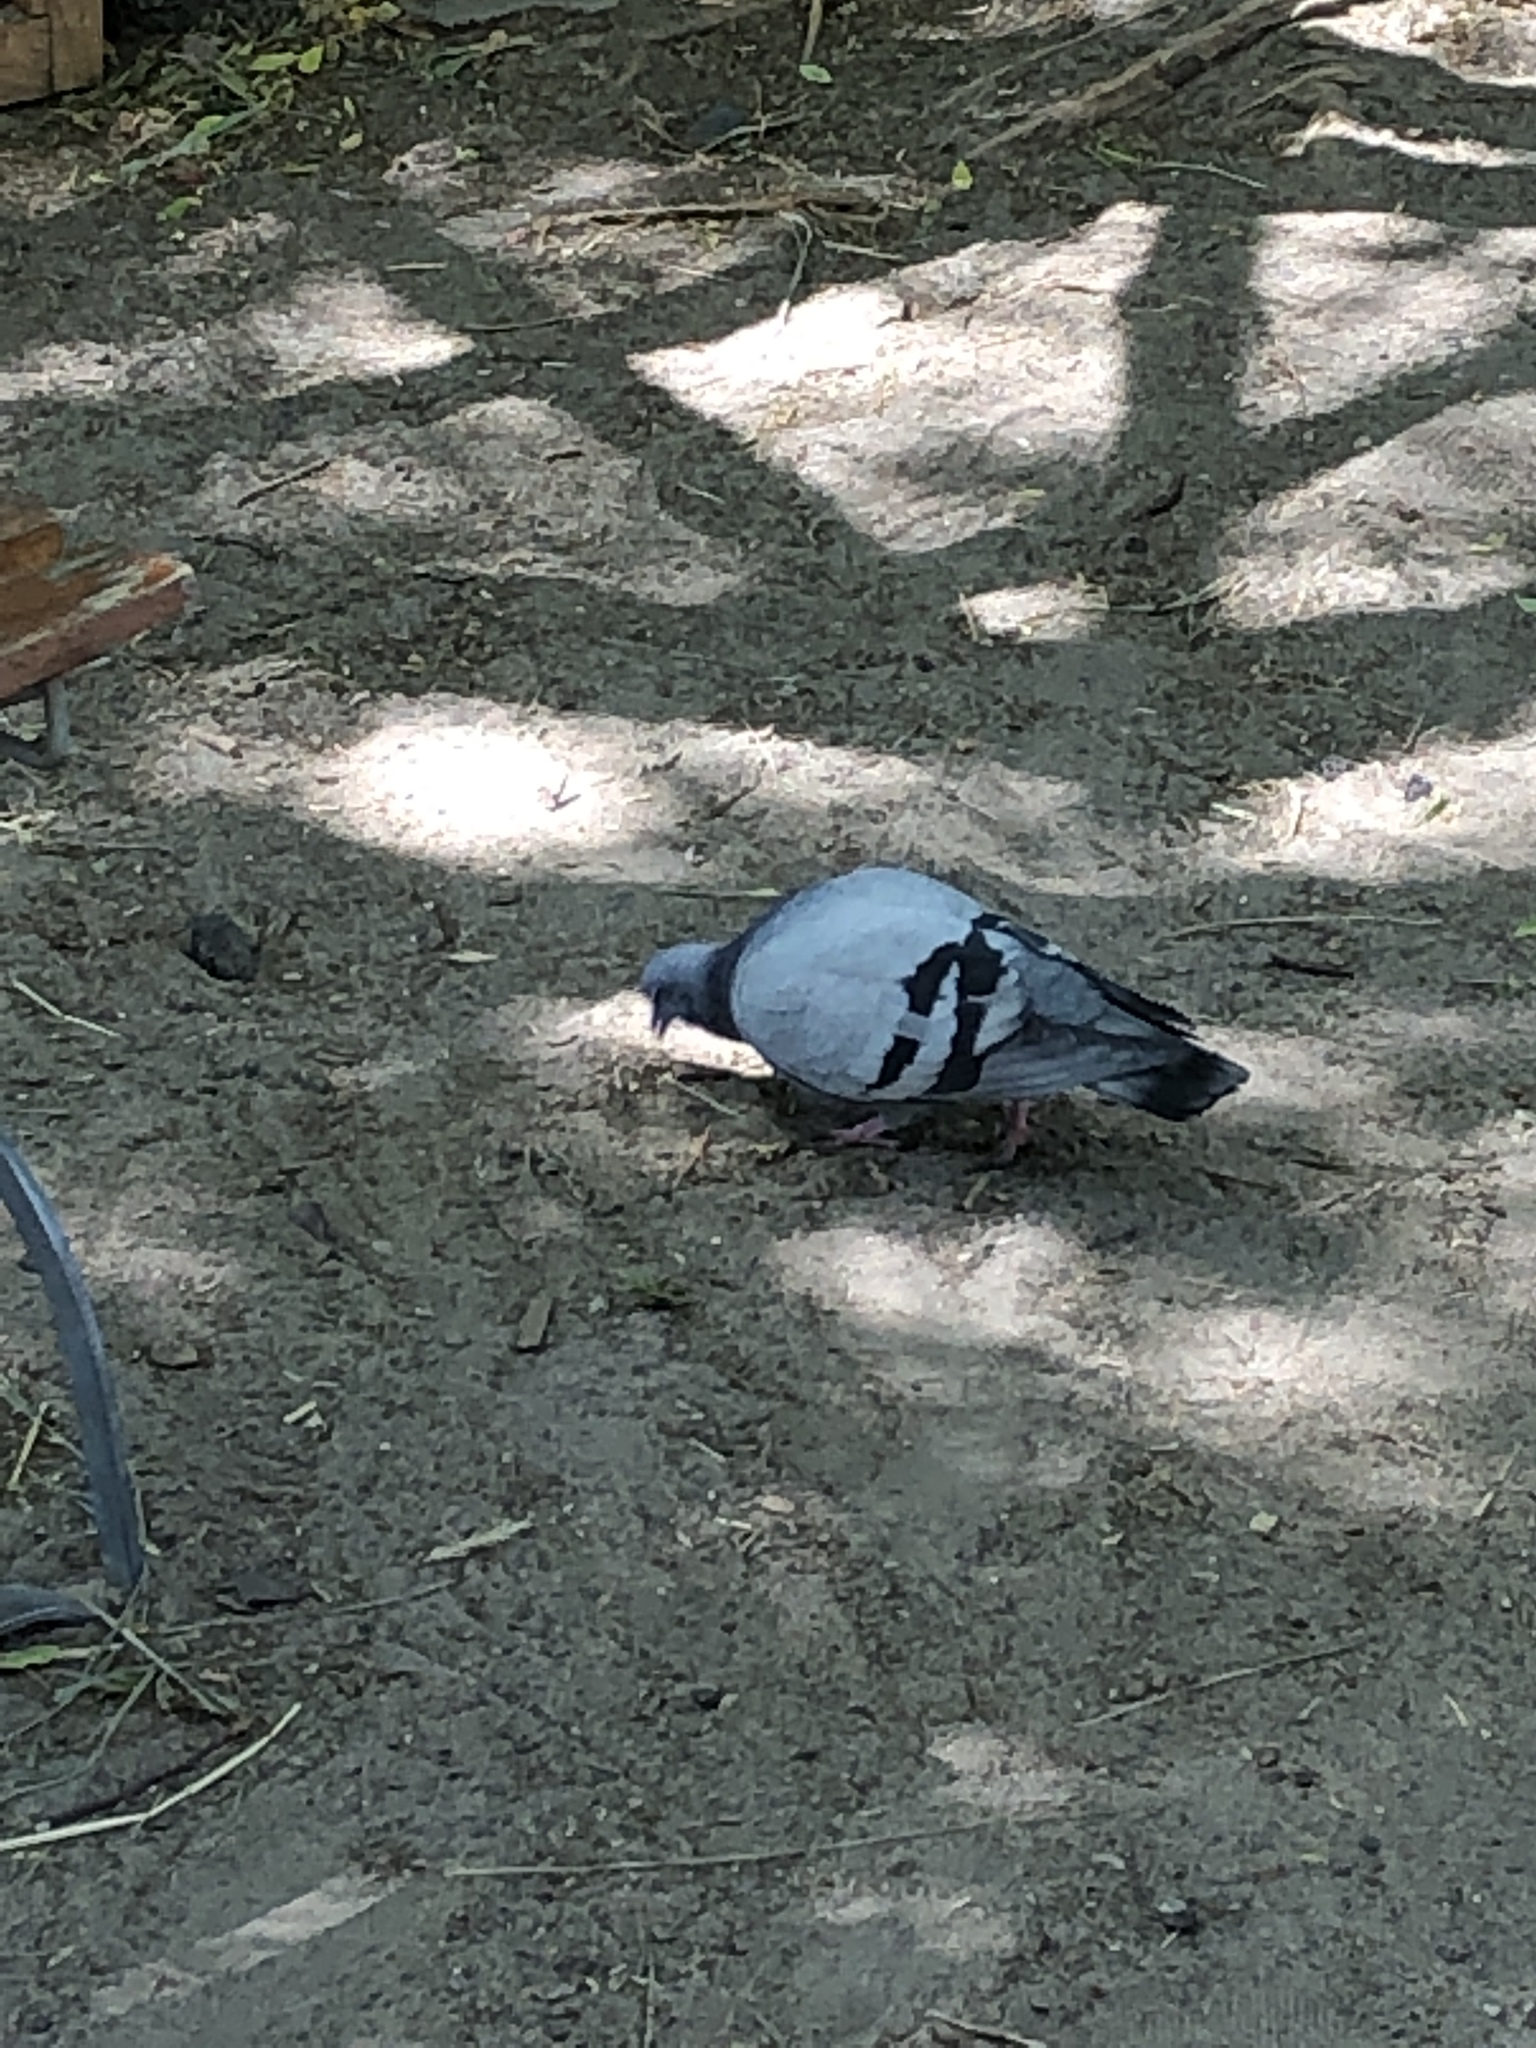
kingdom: Animalia
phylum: Chordata
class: Aves
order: Columbiformes
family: Columbidae
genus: Columba
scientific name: Columba livia
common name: Rock pigeon
